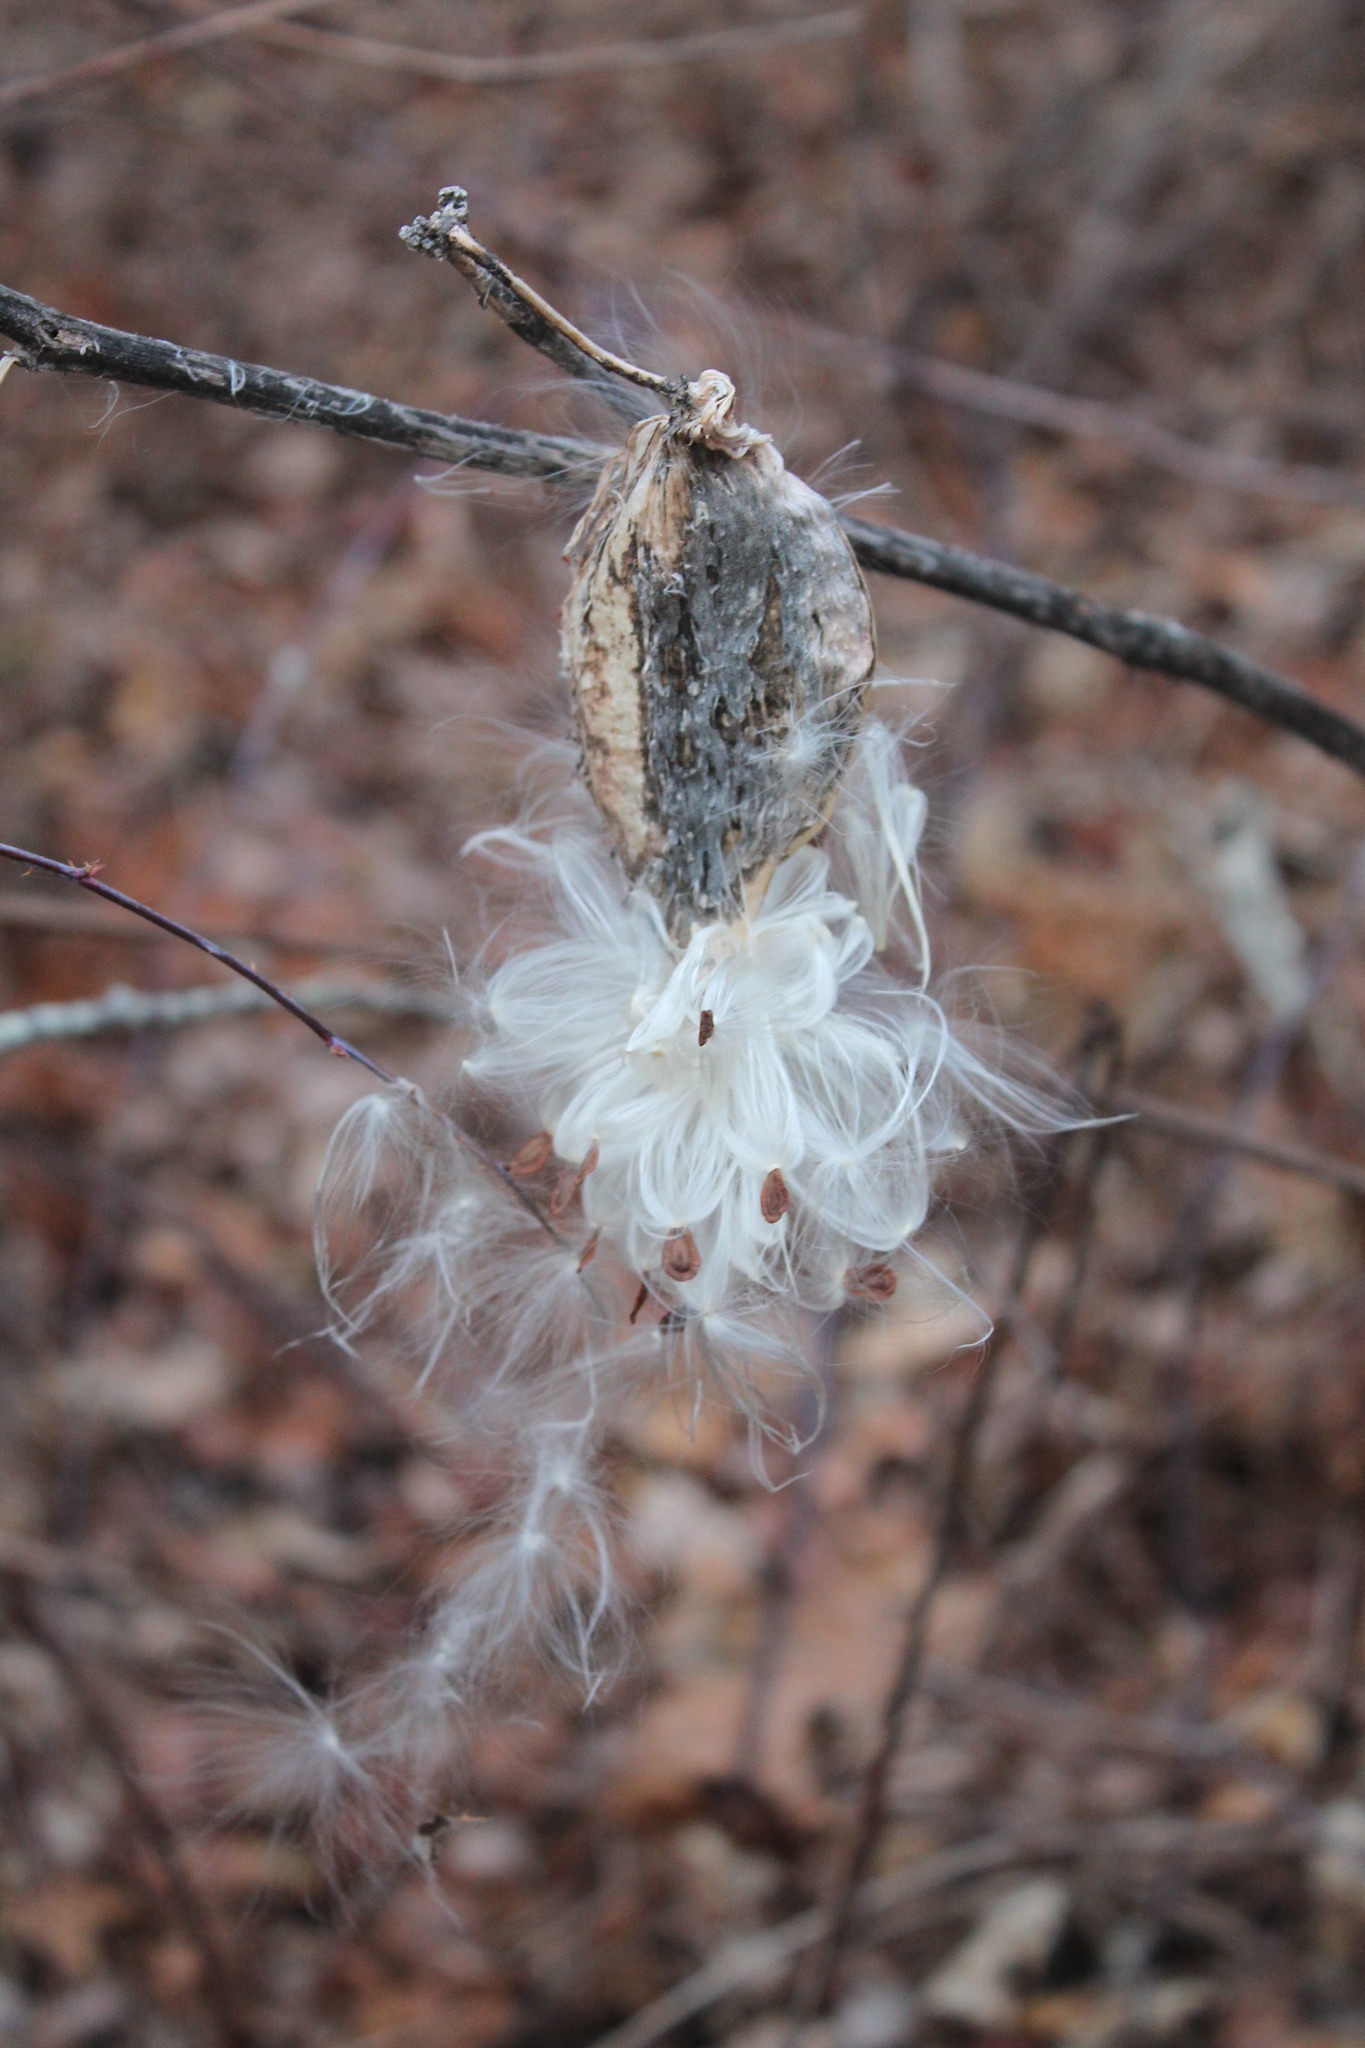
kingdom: Plantae
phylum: Tracheophyta
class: Magnoliopsida
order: Gentianales
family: Apocynaceae
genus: Asclepias
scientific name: Asclepias syriaca
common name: Common milkweed
